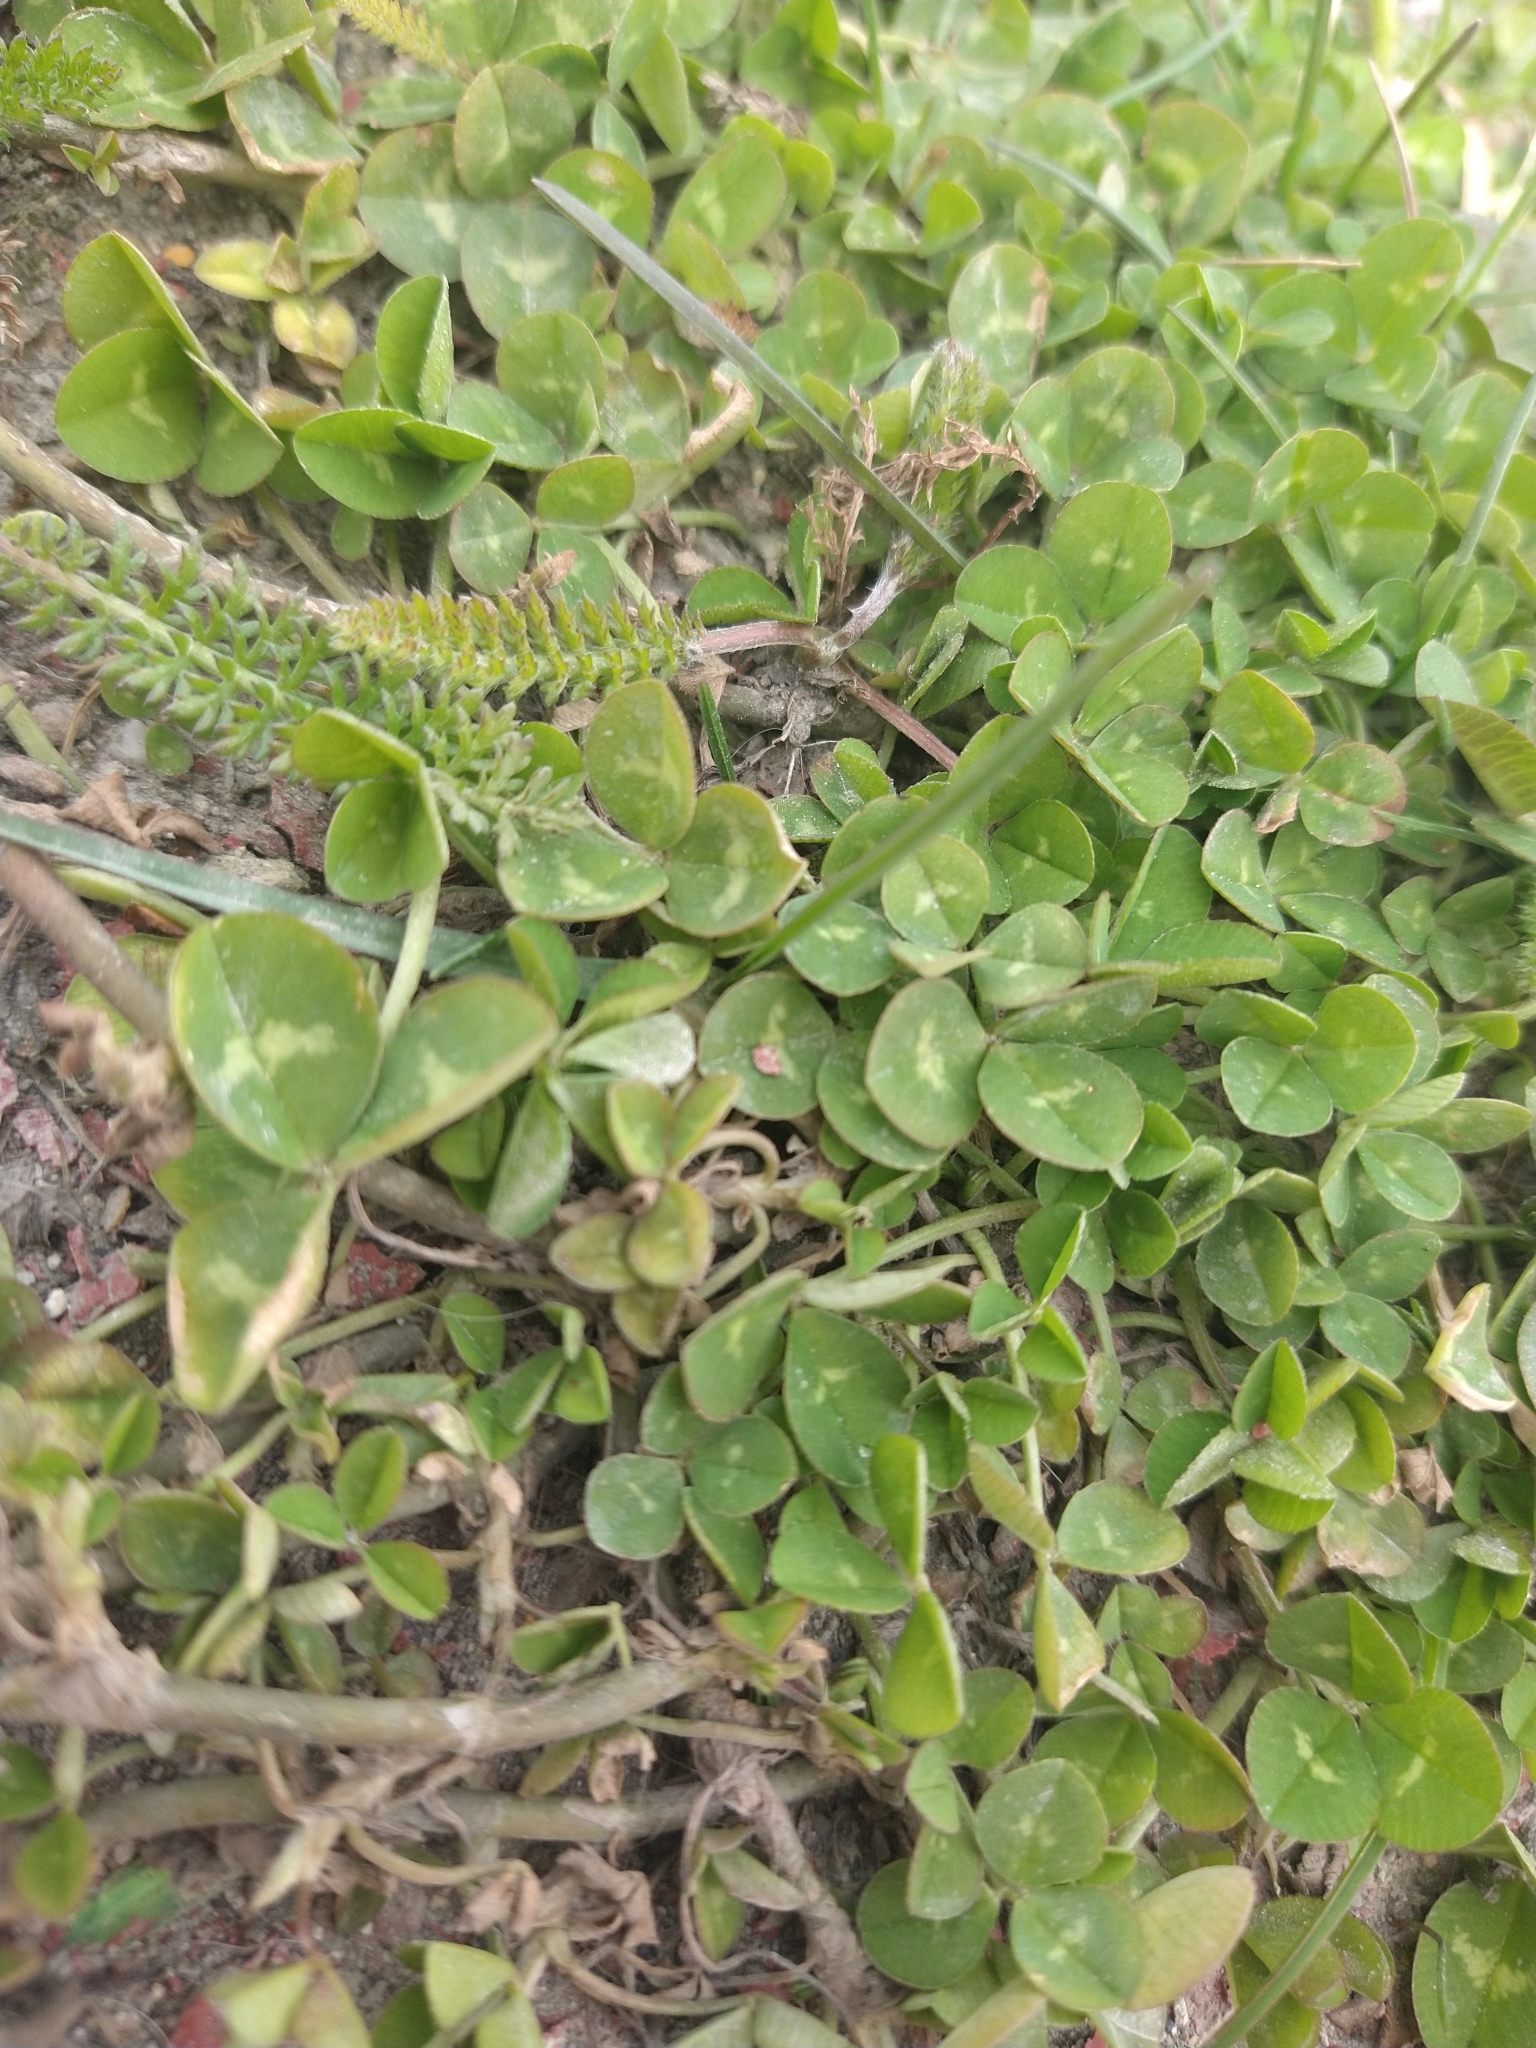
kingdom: Plantae
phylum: Tracheophyta
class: Magnoliopsida
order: Fabales
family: Fabaceae
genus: Trifolium
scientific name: Trifolium repens
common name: White clover
